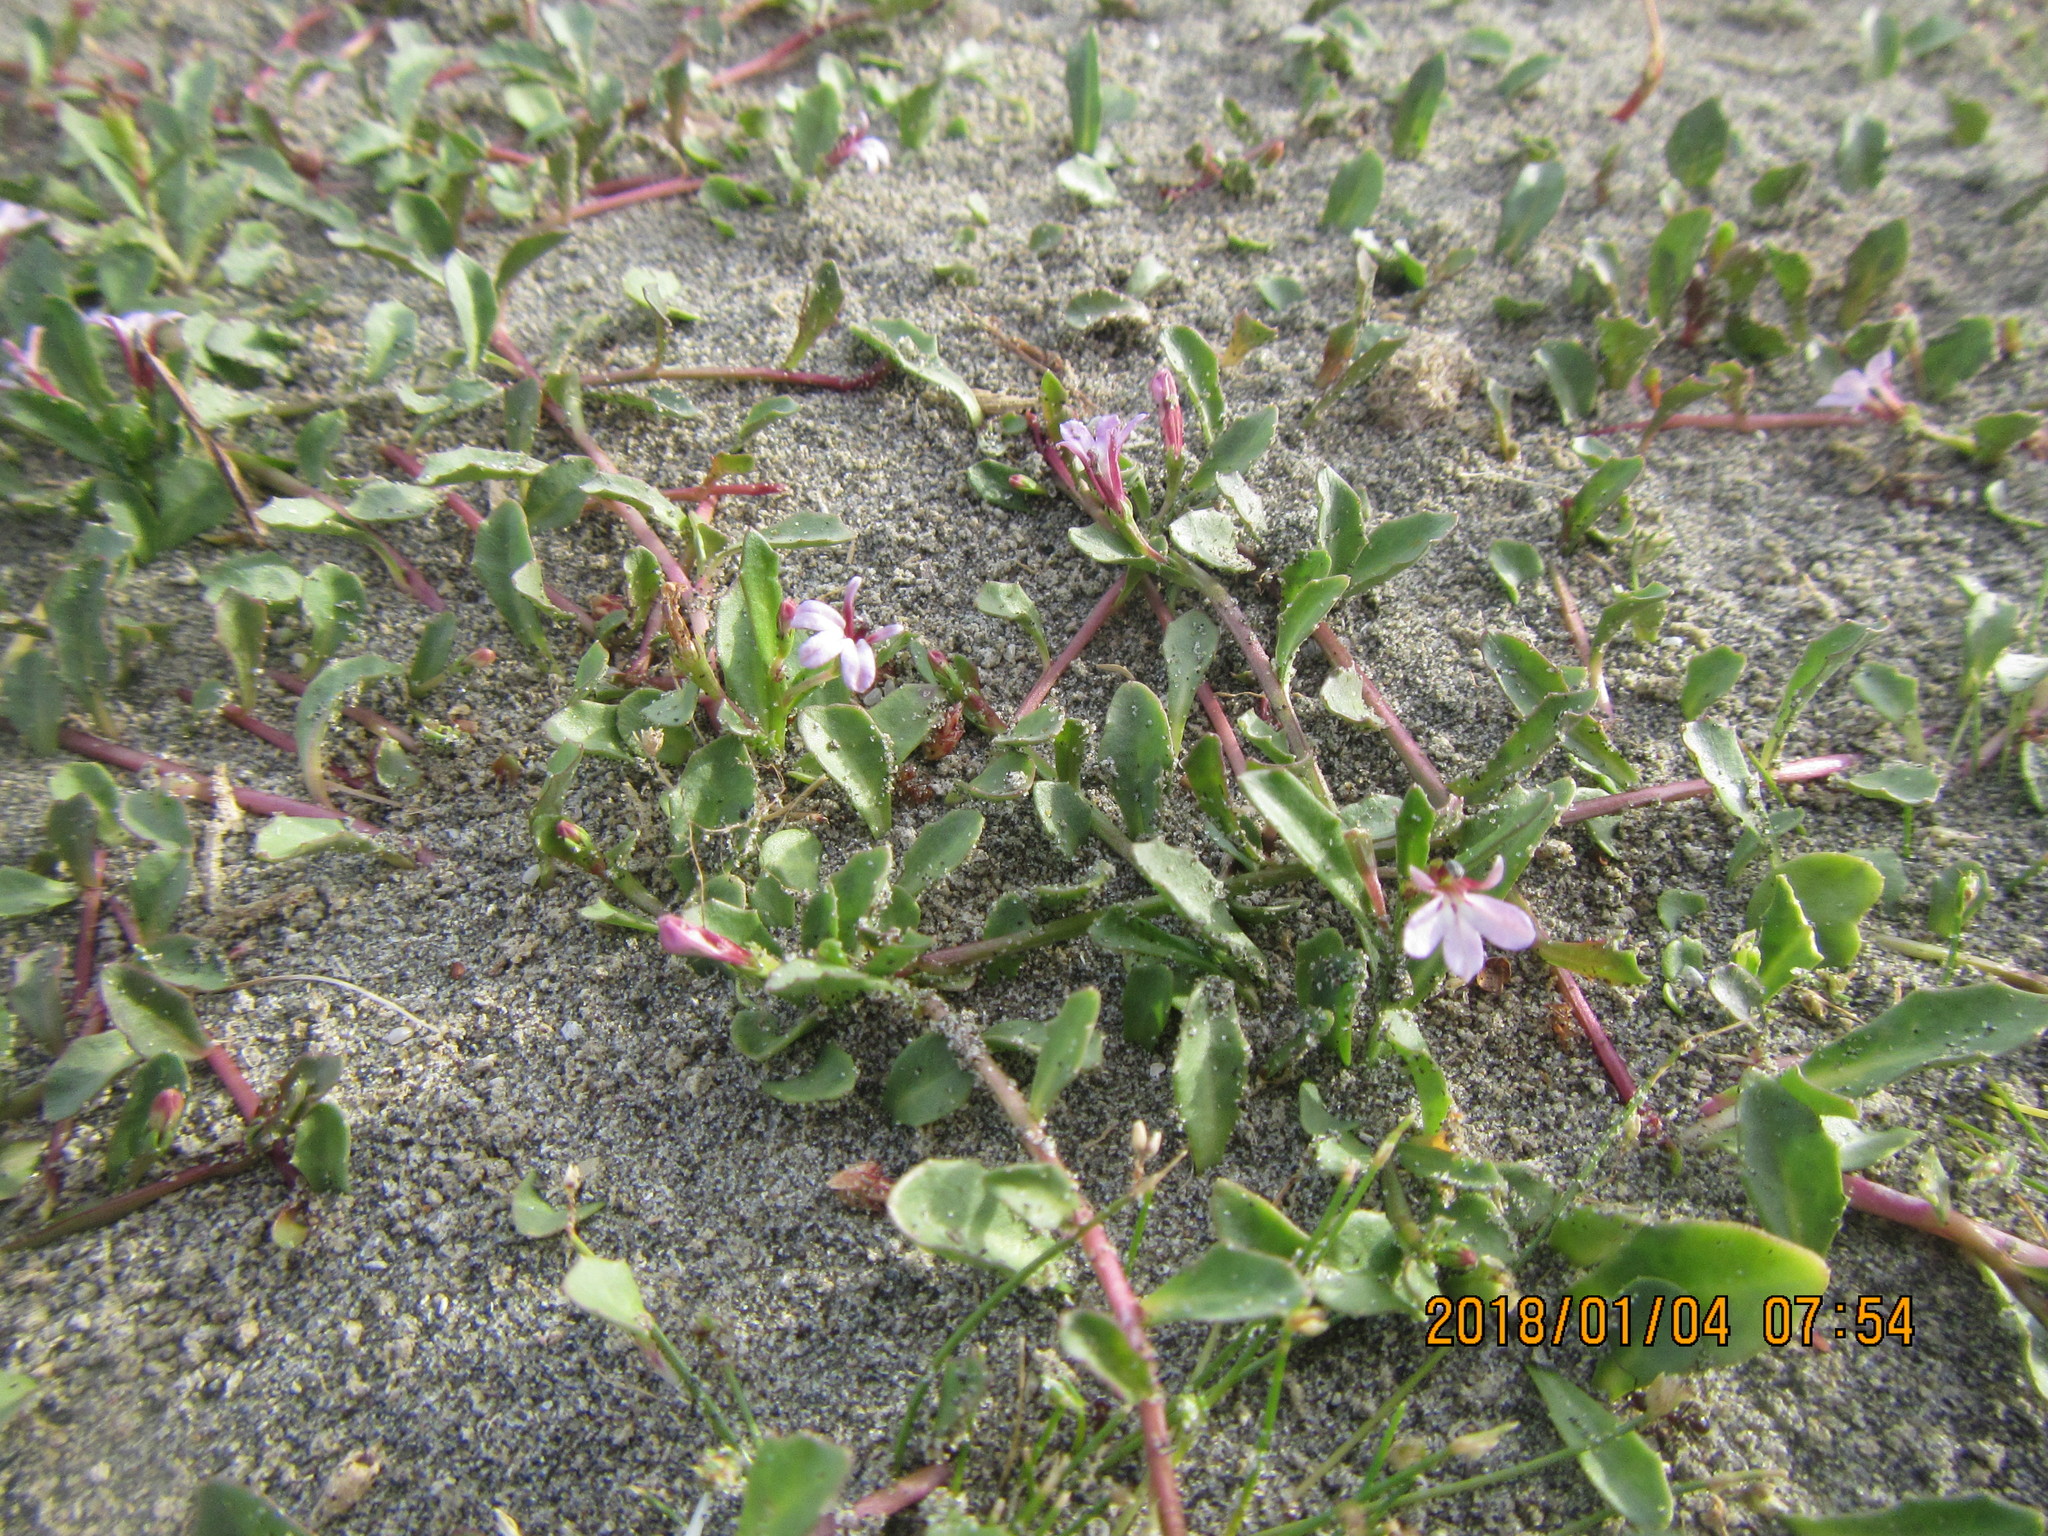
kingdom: Plantae
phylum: Tracheophyta
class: Magnoliopsida
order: Asterales
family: Campanulaceae
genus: Lobelia
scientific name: Lobelia anceps
